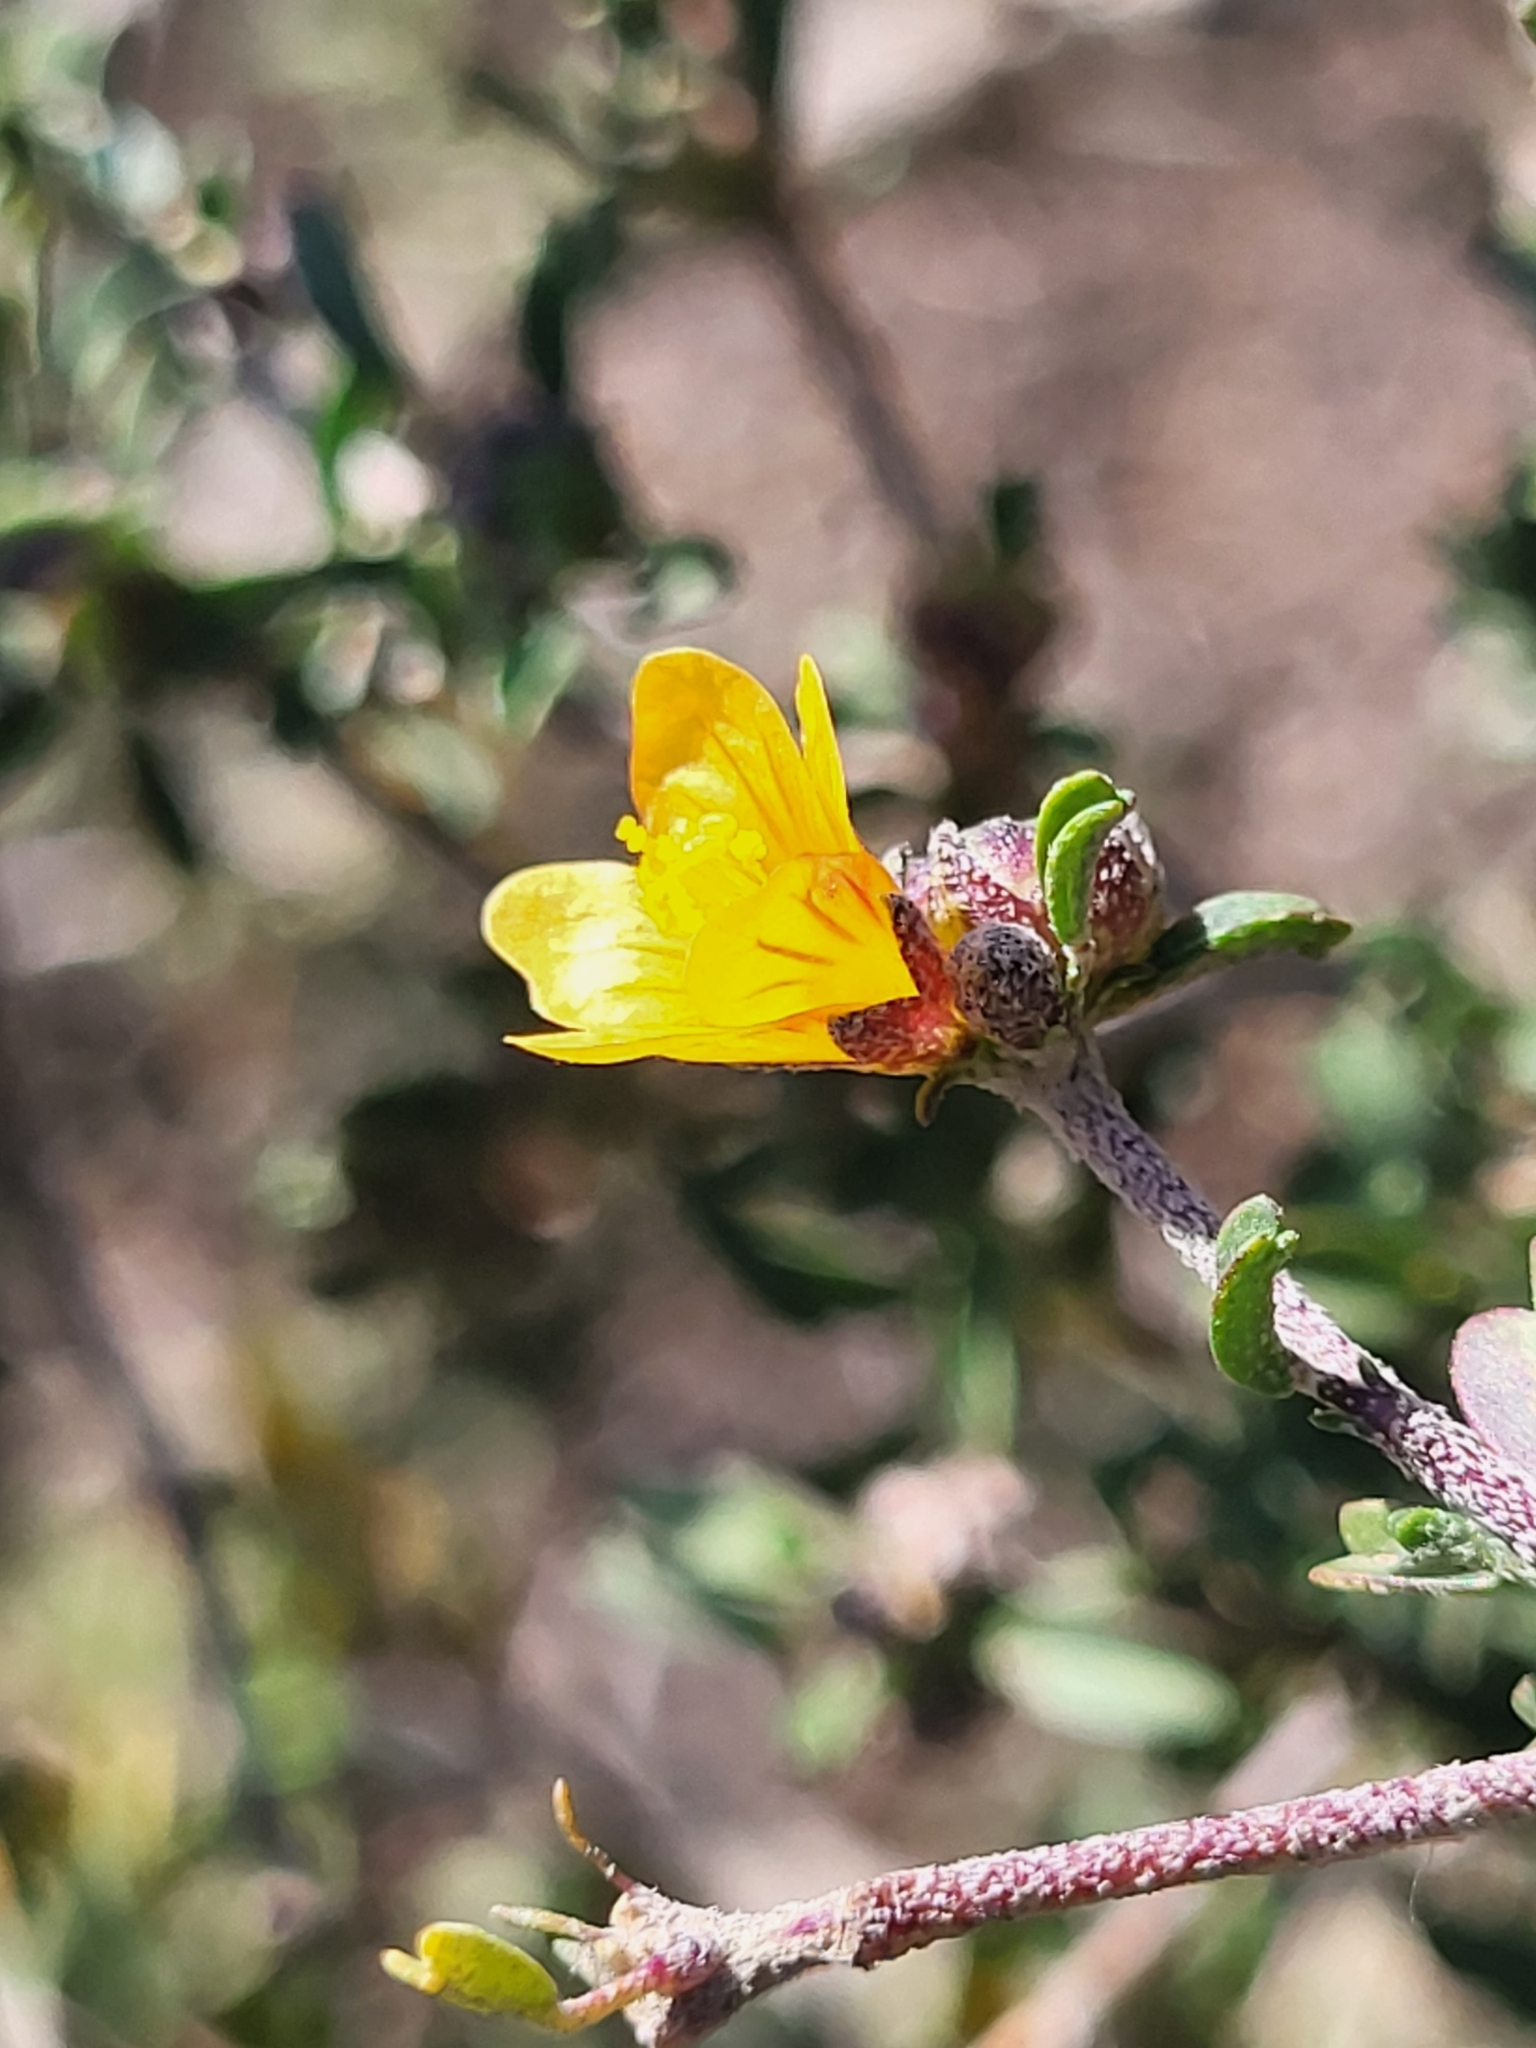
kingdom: Plantae
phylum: Tracheophyta
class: Magnoliopsida
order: Malvales
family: Malvaceae
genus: Sida
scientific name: Sida tenuicarpa
